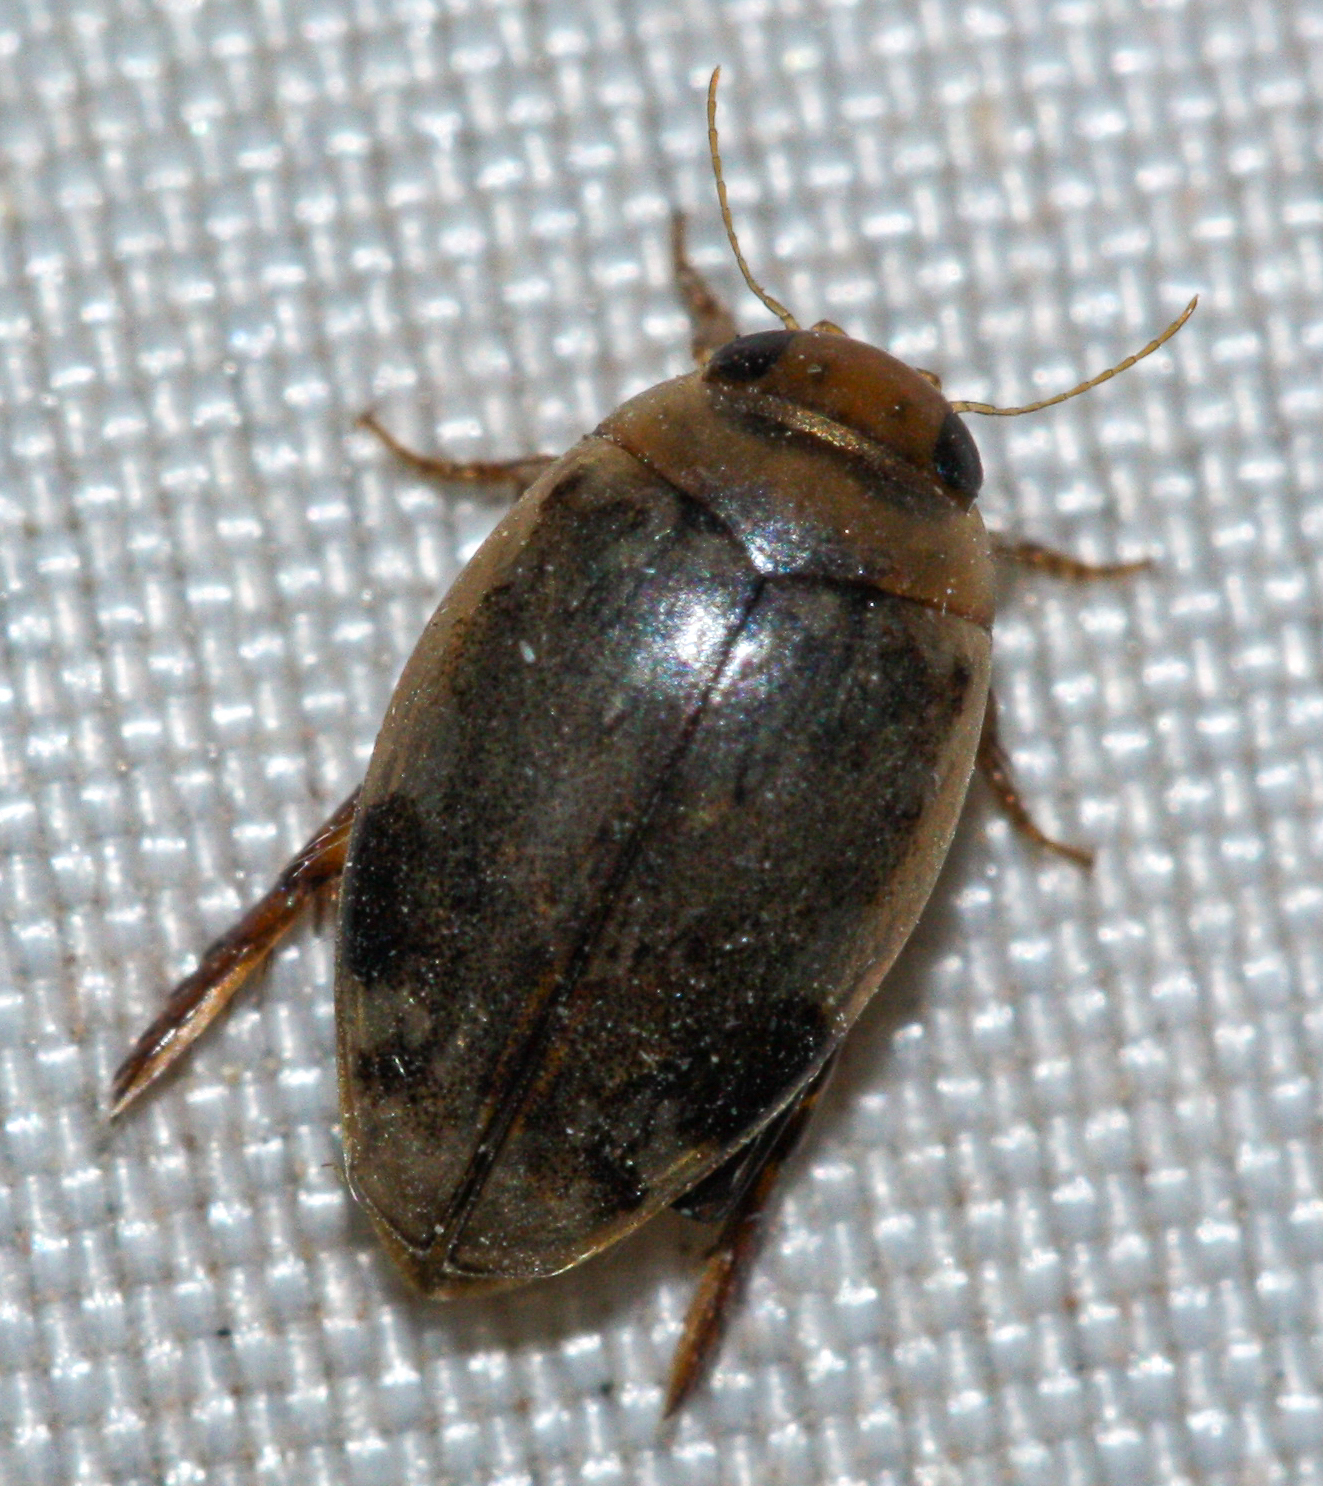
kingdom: Animalia
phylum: Arthropoda
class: Insecta
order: Coleoptera
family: Dytiscidae
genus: Laccophilus
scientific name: Laccophilus fasciatus
